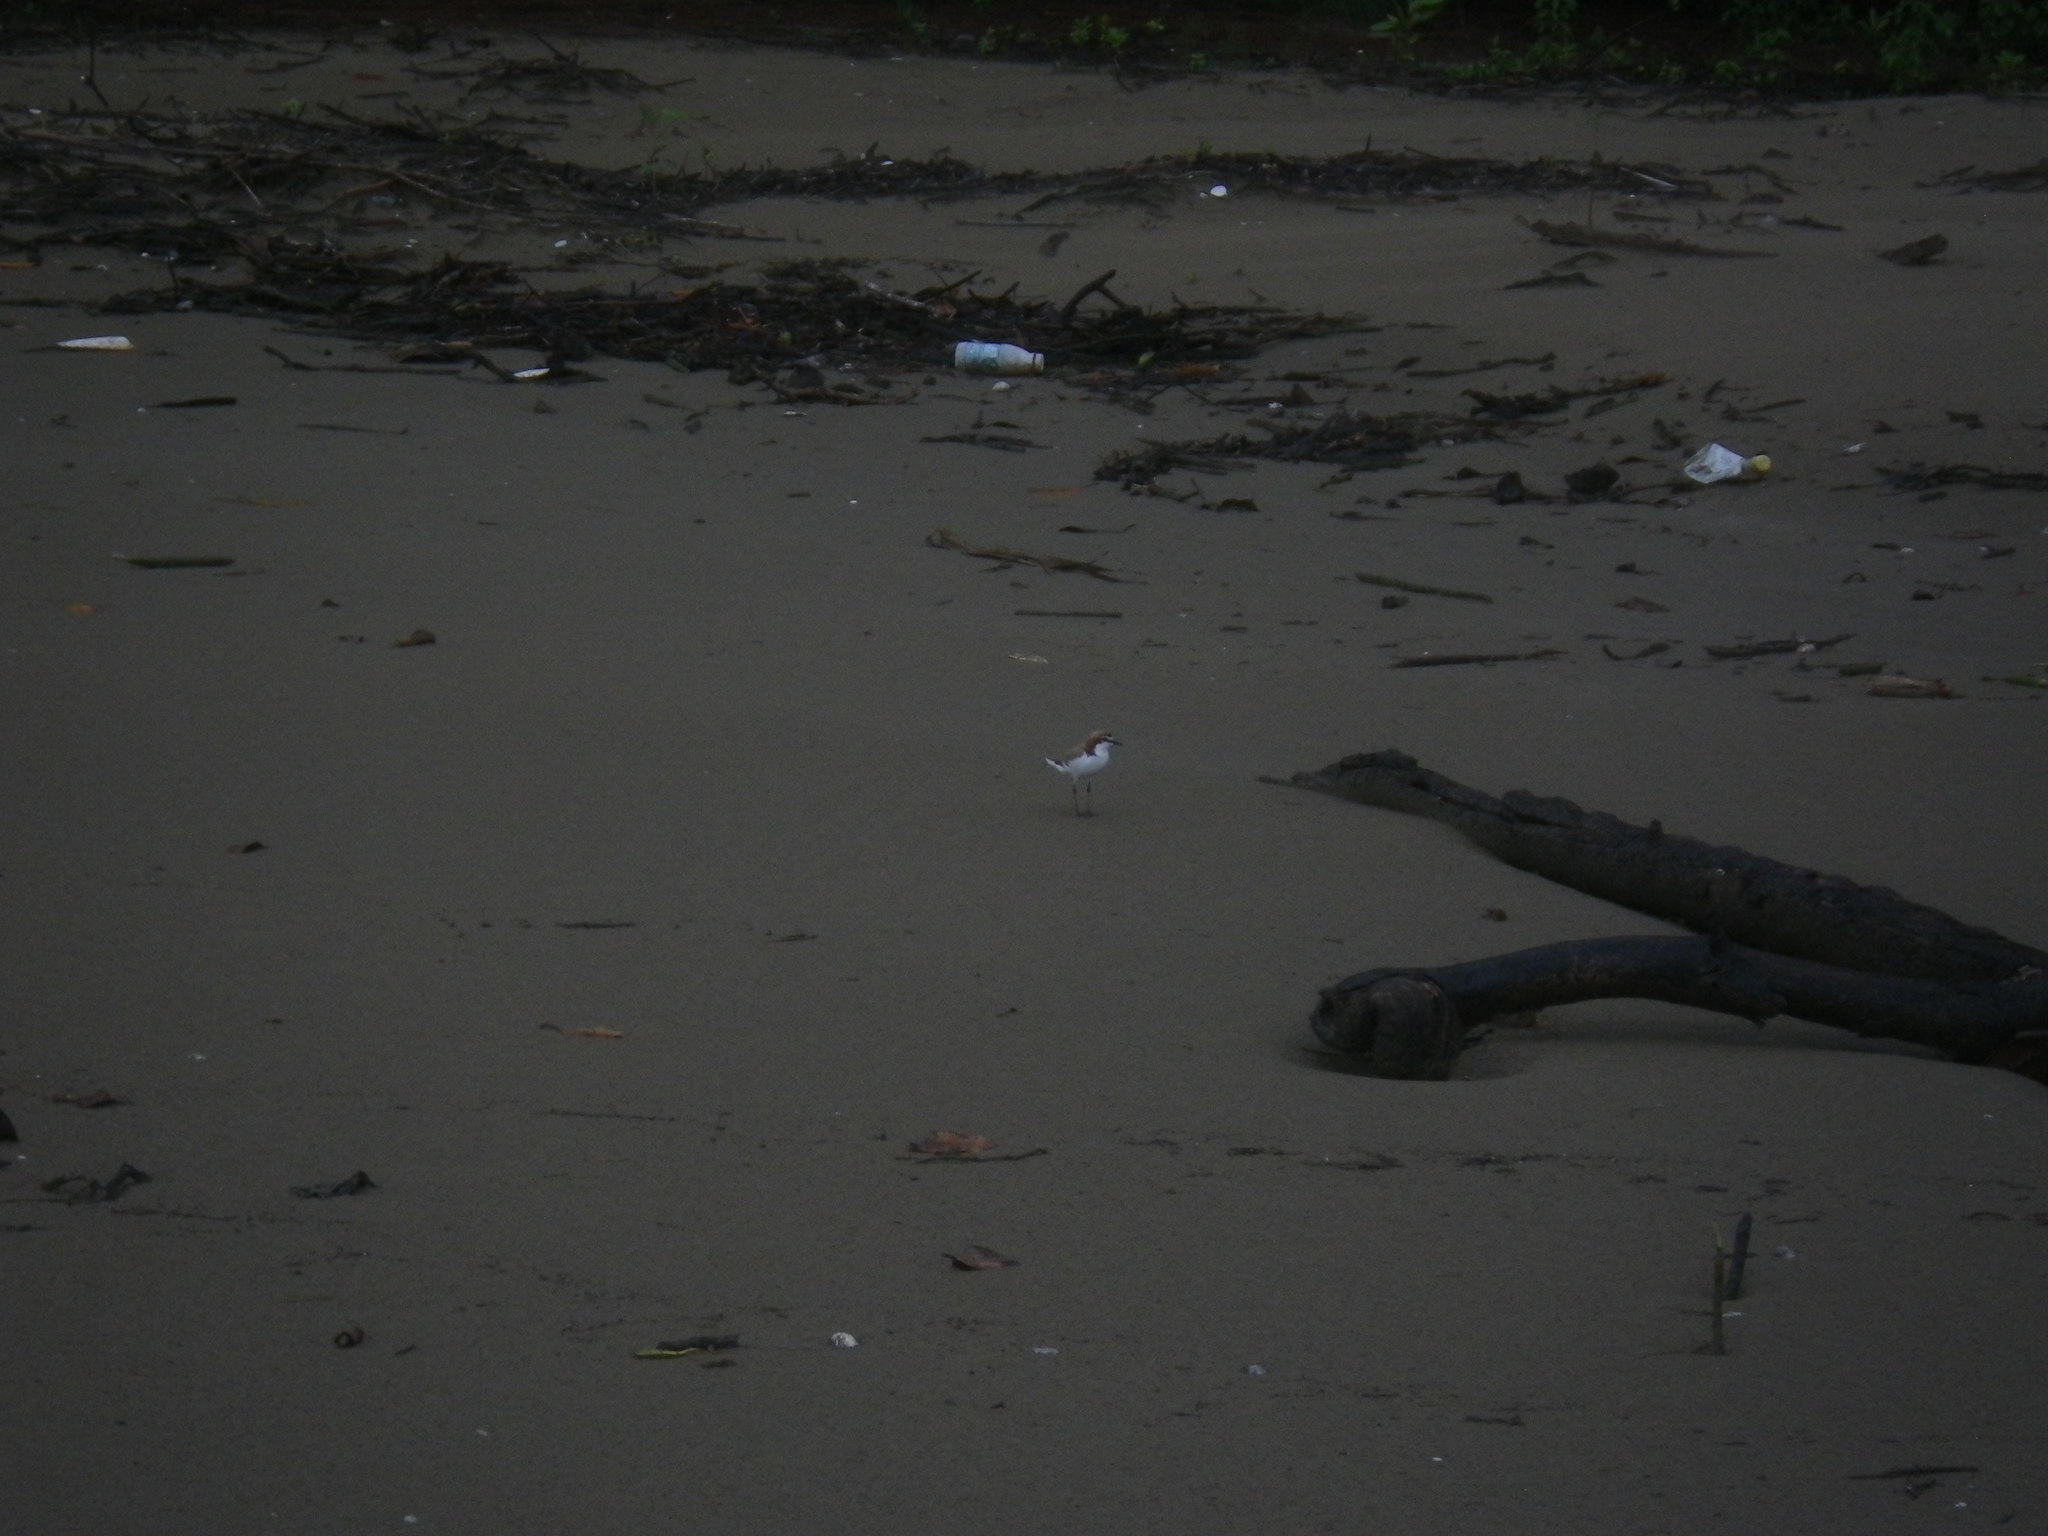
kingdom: Animalia
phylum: Chordata
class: Aves
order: Charadriiformes
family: Charadriidae
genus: Anarhynchus
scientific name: Anarhynchus
